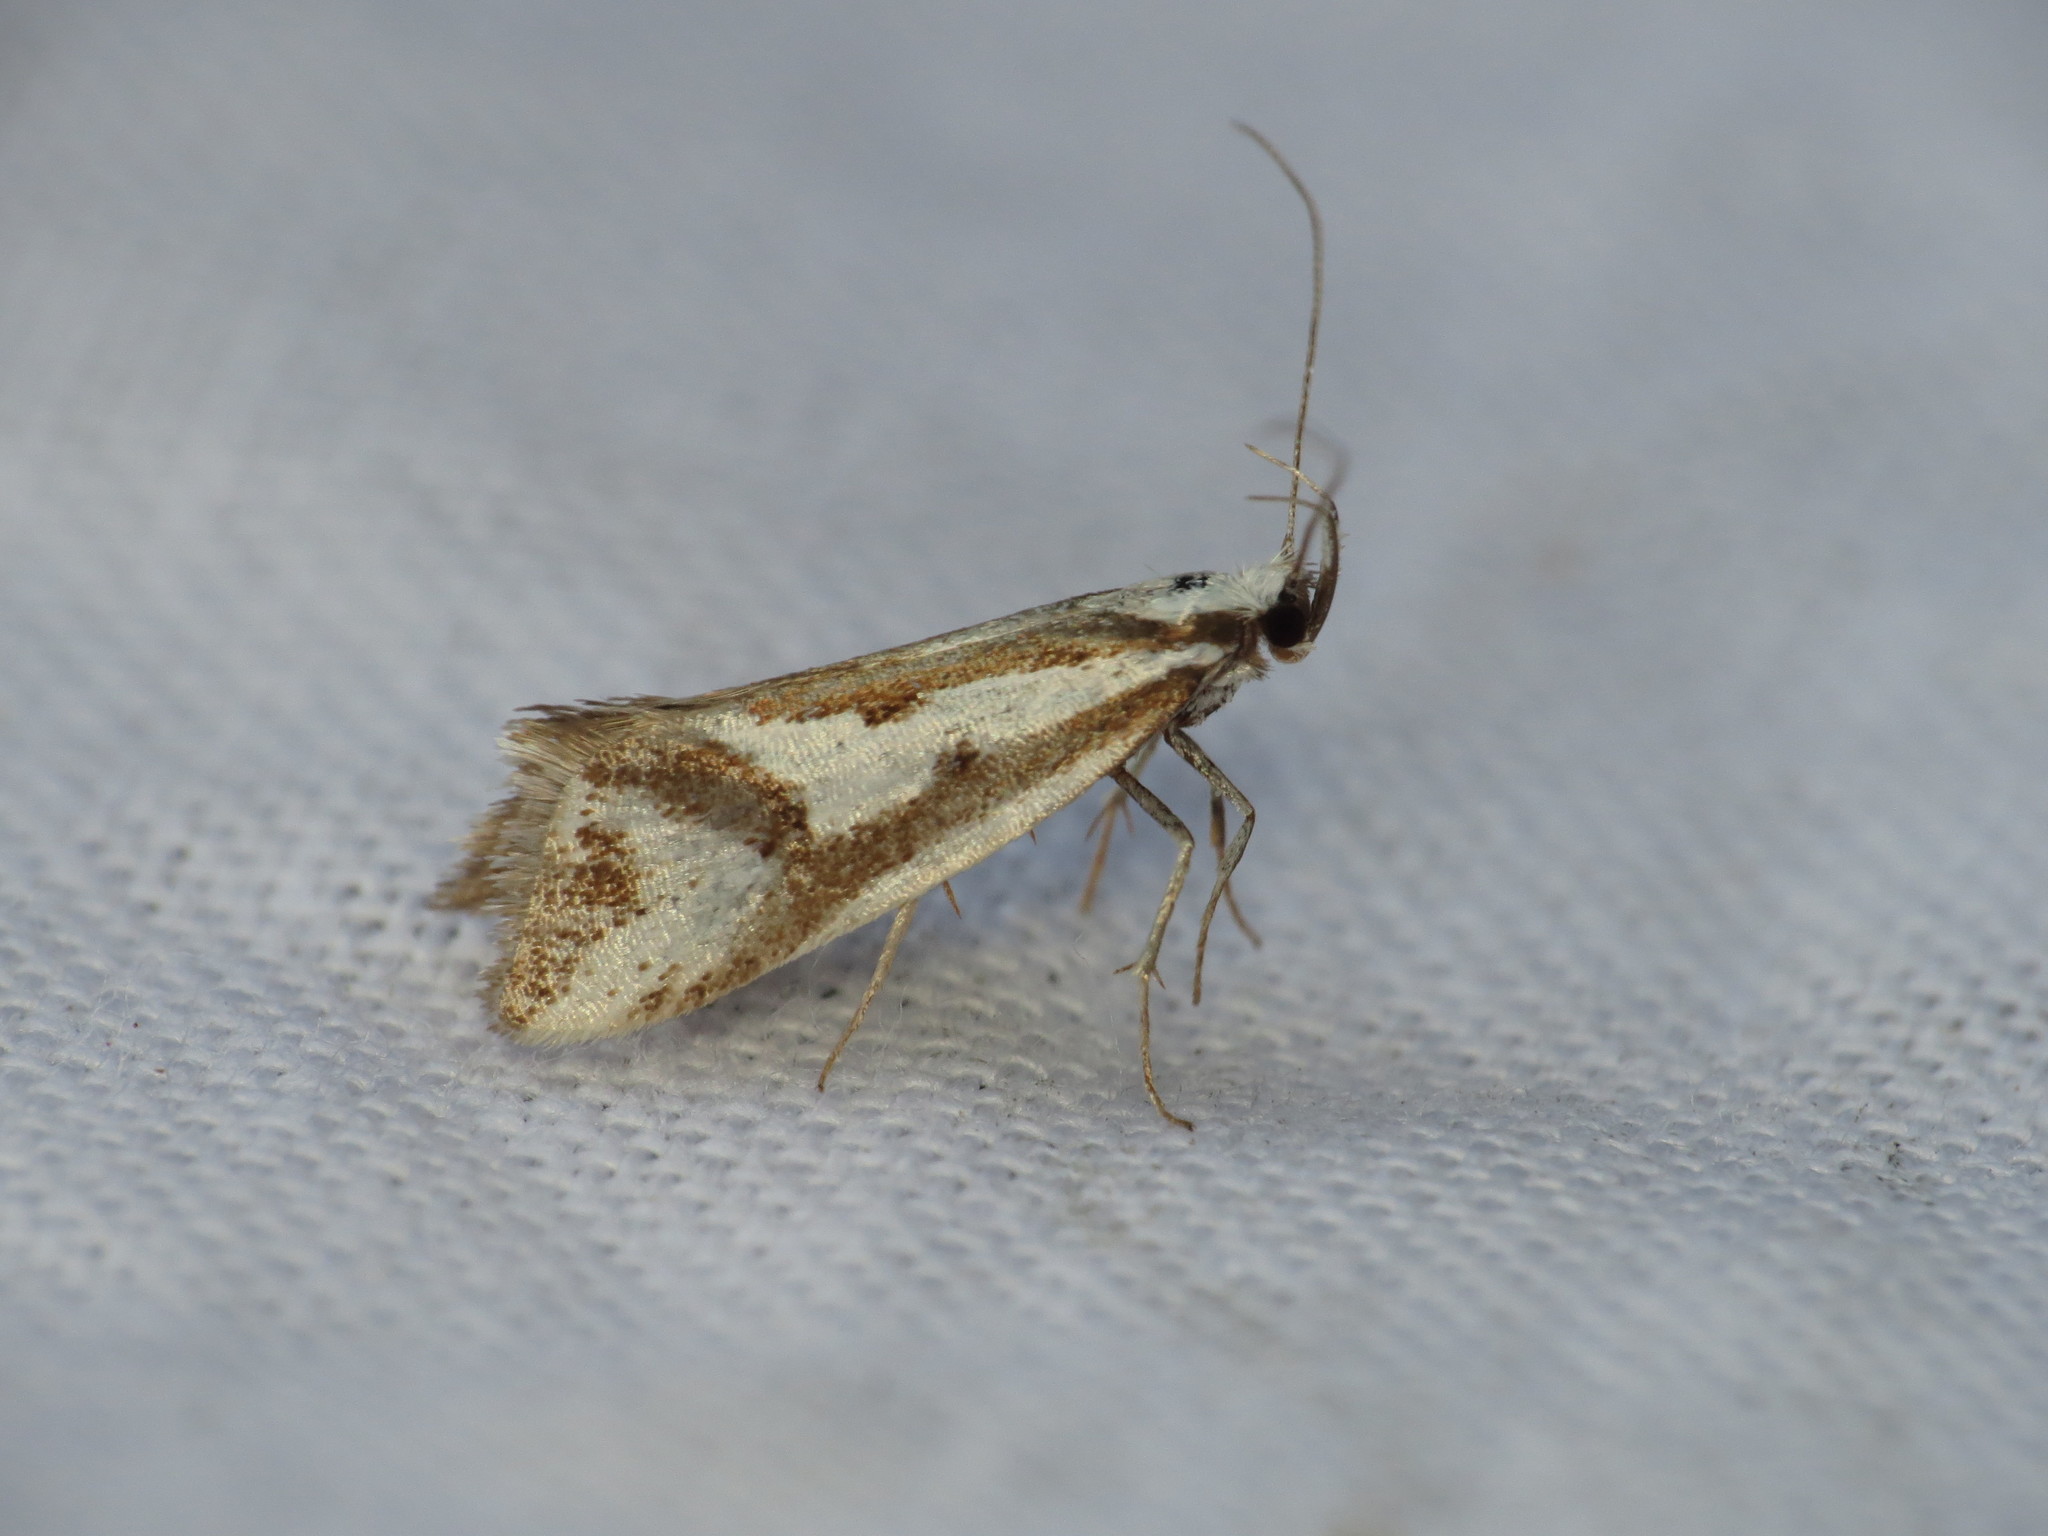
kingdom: Animalia
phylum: Arthropoda
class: Insecta
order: Lepidoptera
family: Oecophoridae
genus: Orthiastis
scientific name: Orthiastis hyperocha
